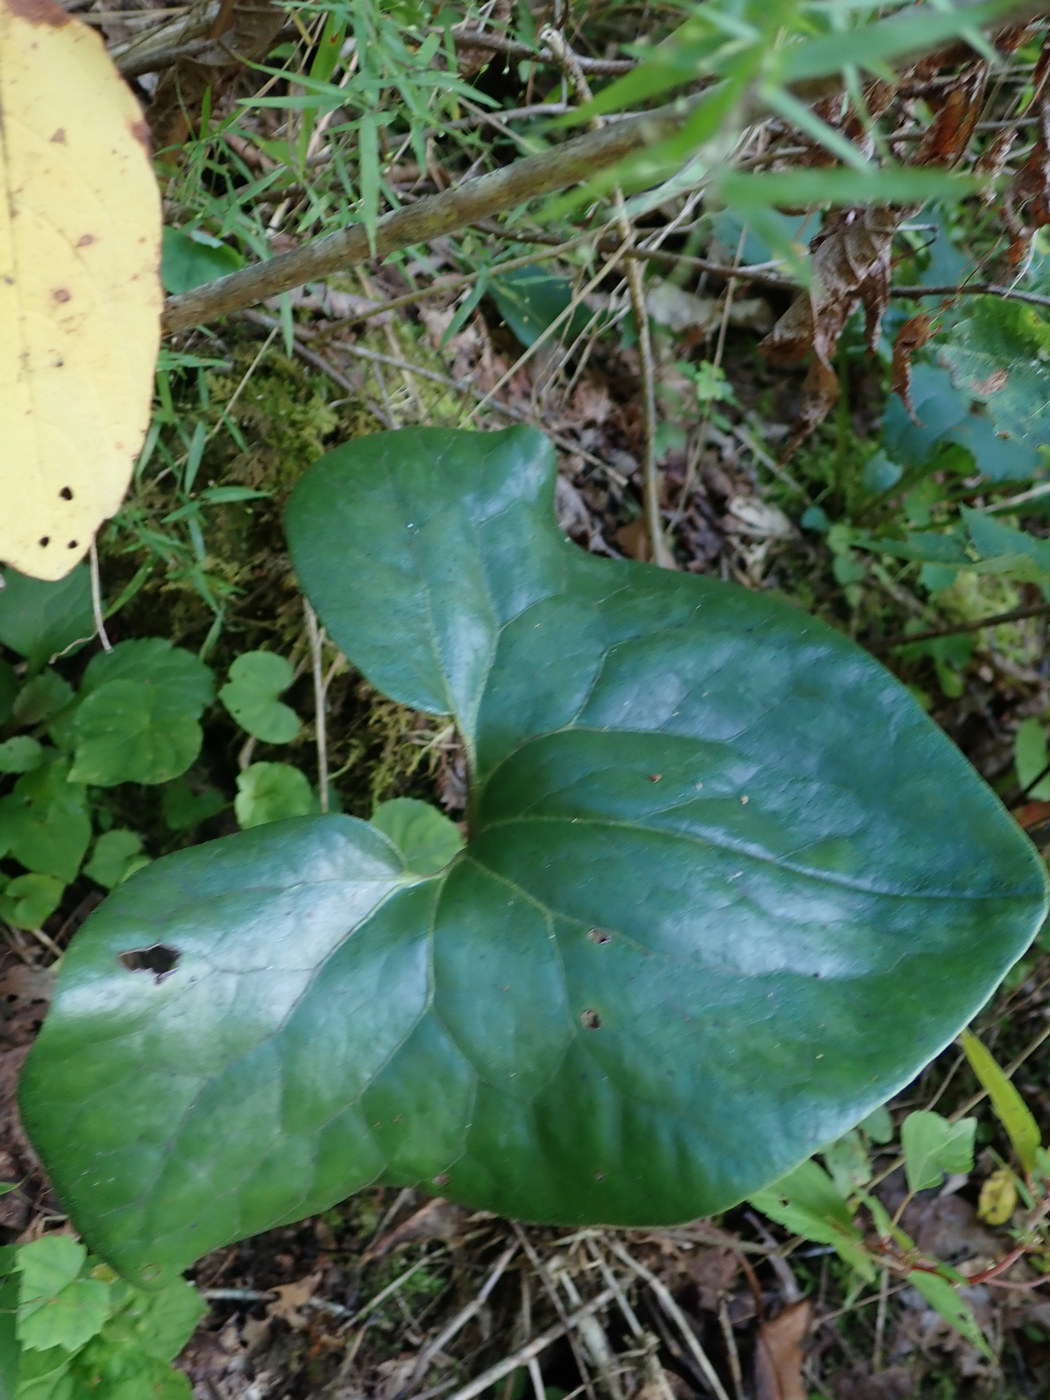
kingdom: Plantae
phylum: Tracheophyta
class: Magnoliopsida
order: Piperales
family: Aristolochiaceae
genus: Hexastylis
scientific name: Hexastylis arifolia
